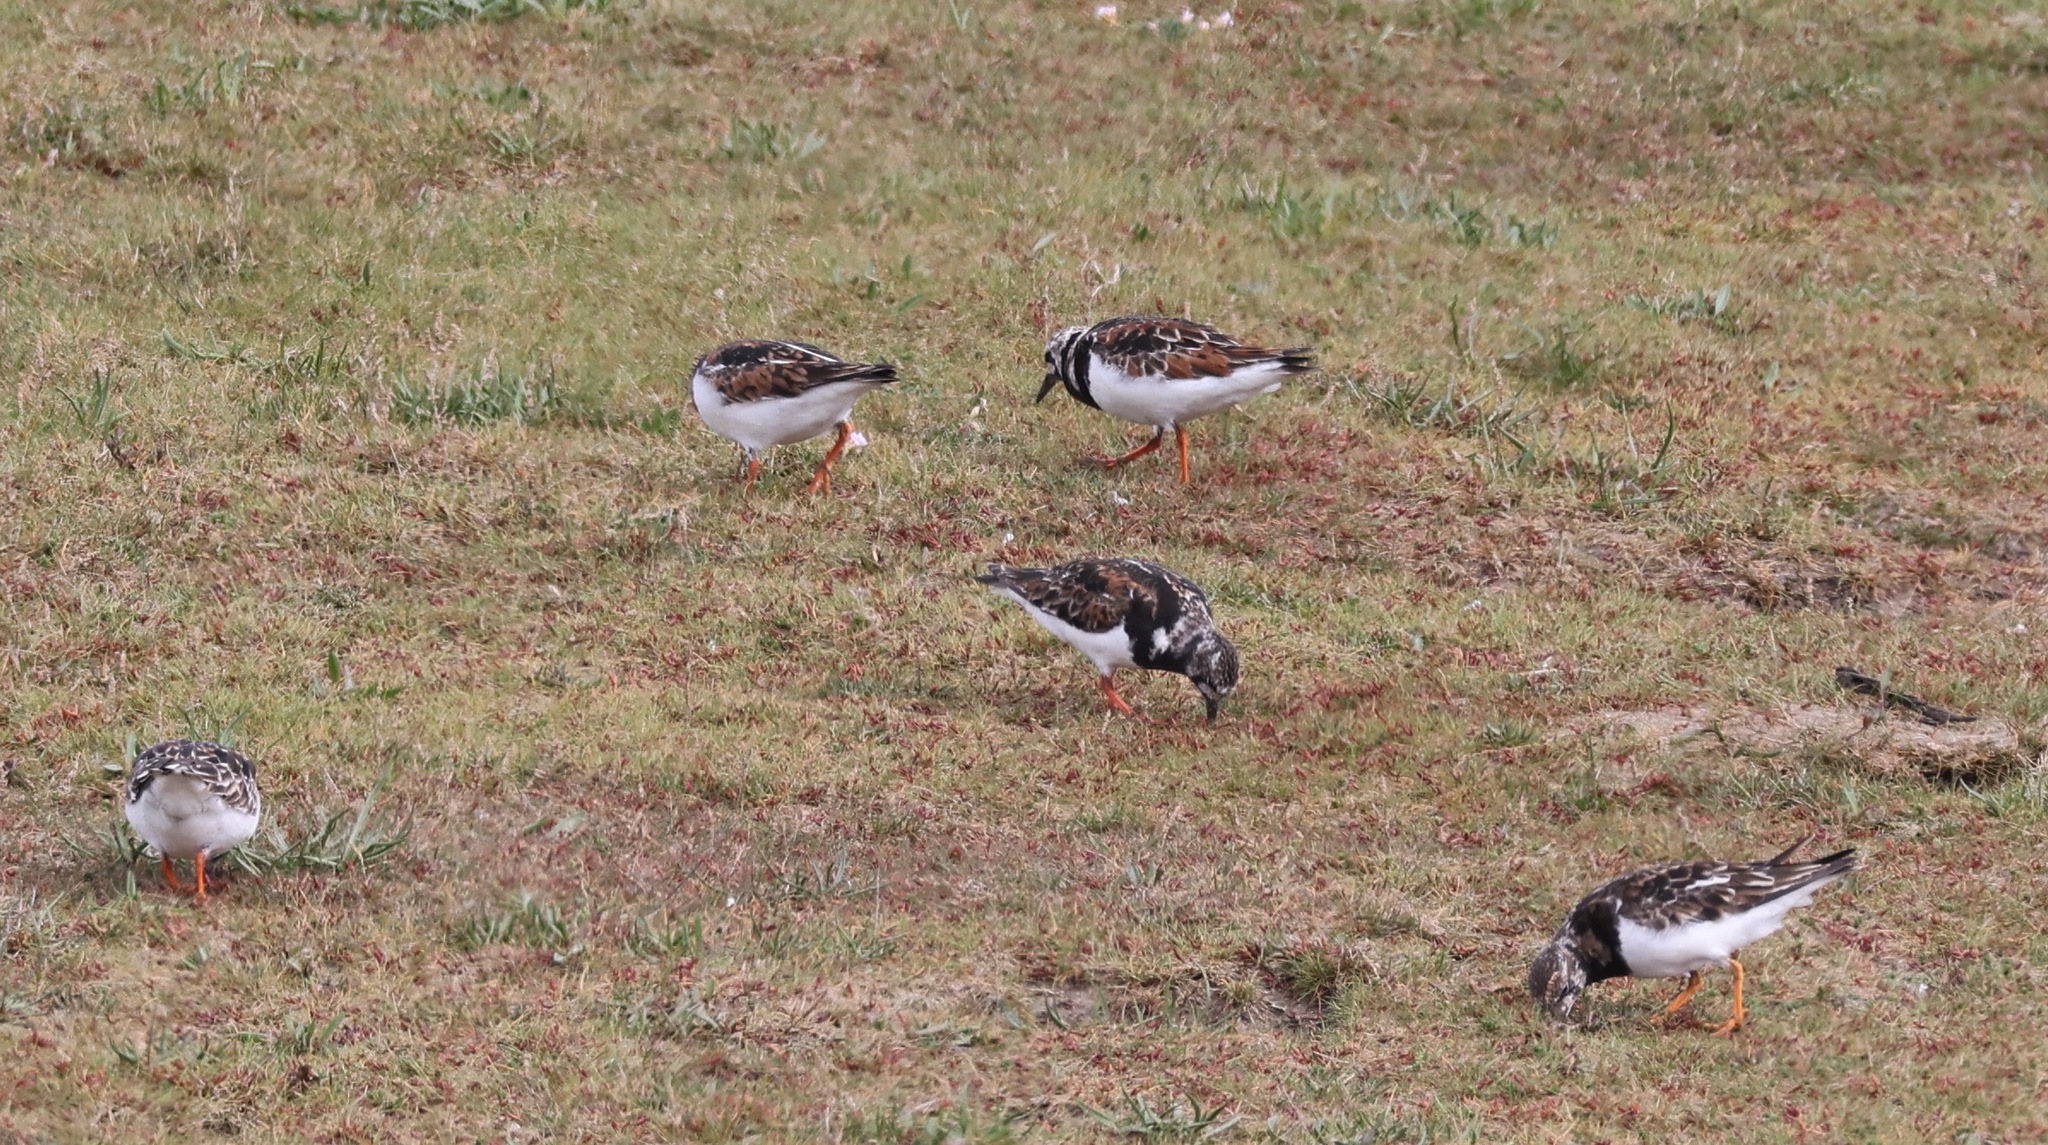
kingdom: Animalia
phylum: Chordata
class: Aves
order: Charadriiformes
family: Scolopacidae
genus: Arenaria
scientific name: Arenaria interpres
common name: Ruddy turnstone
